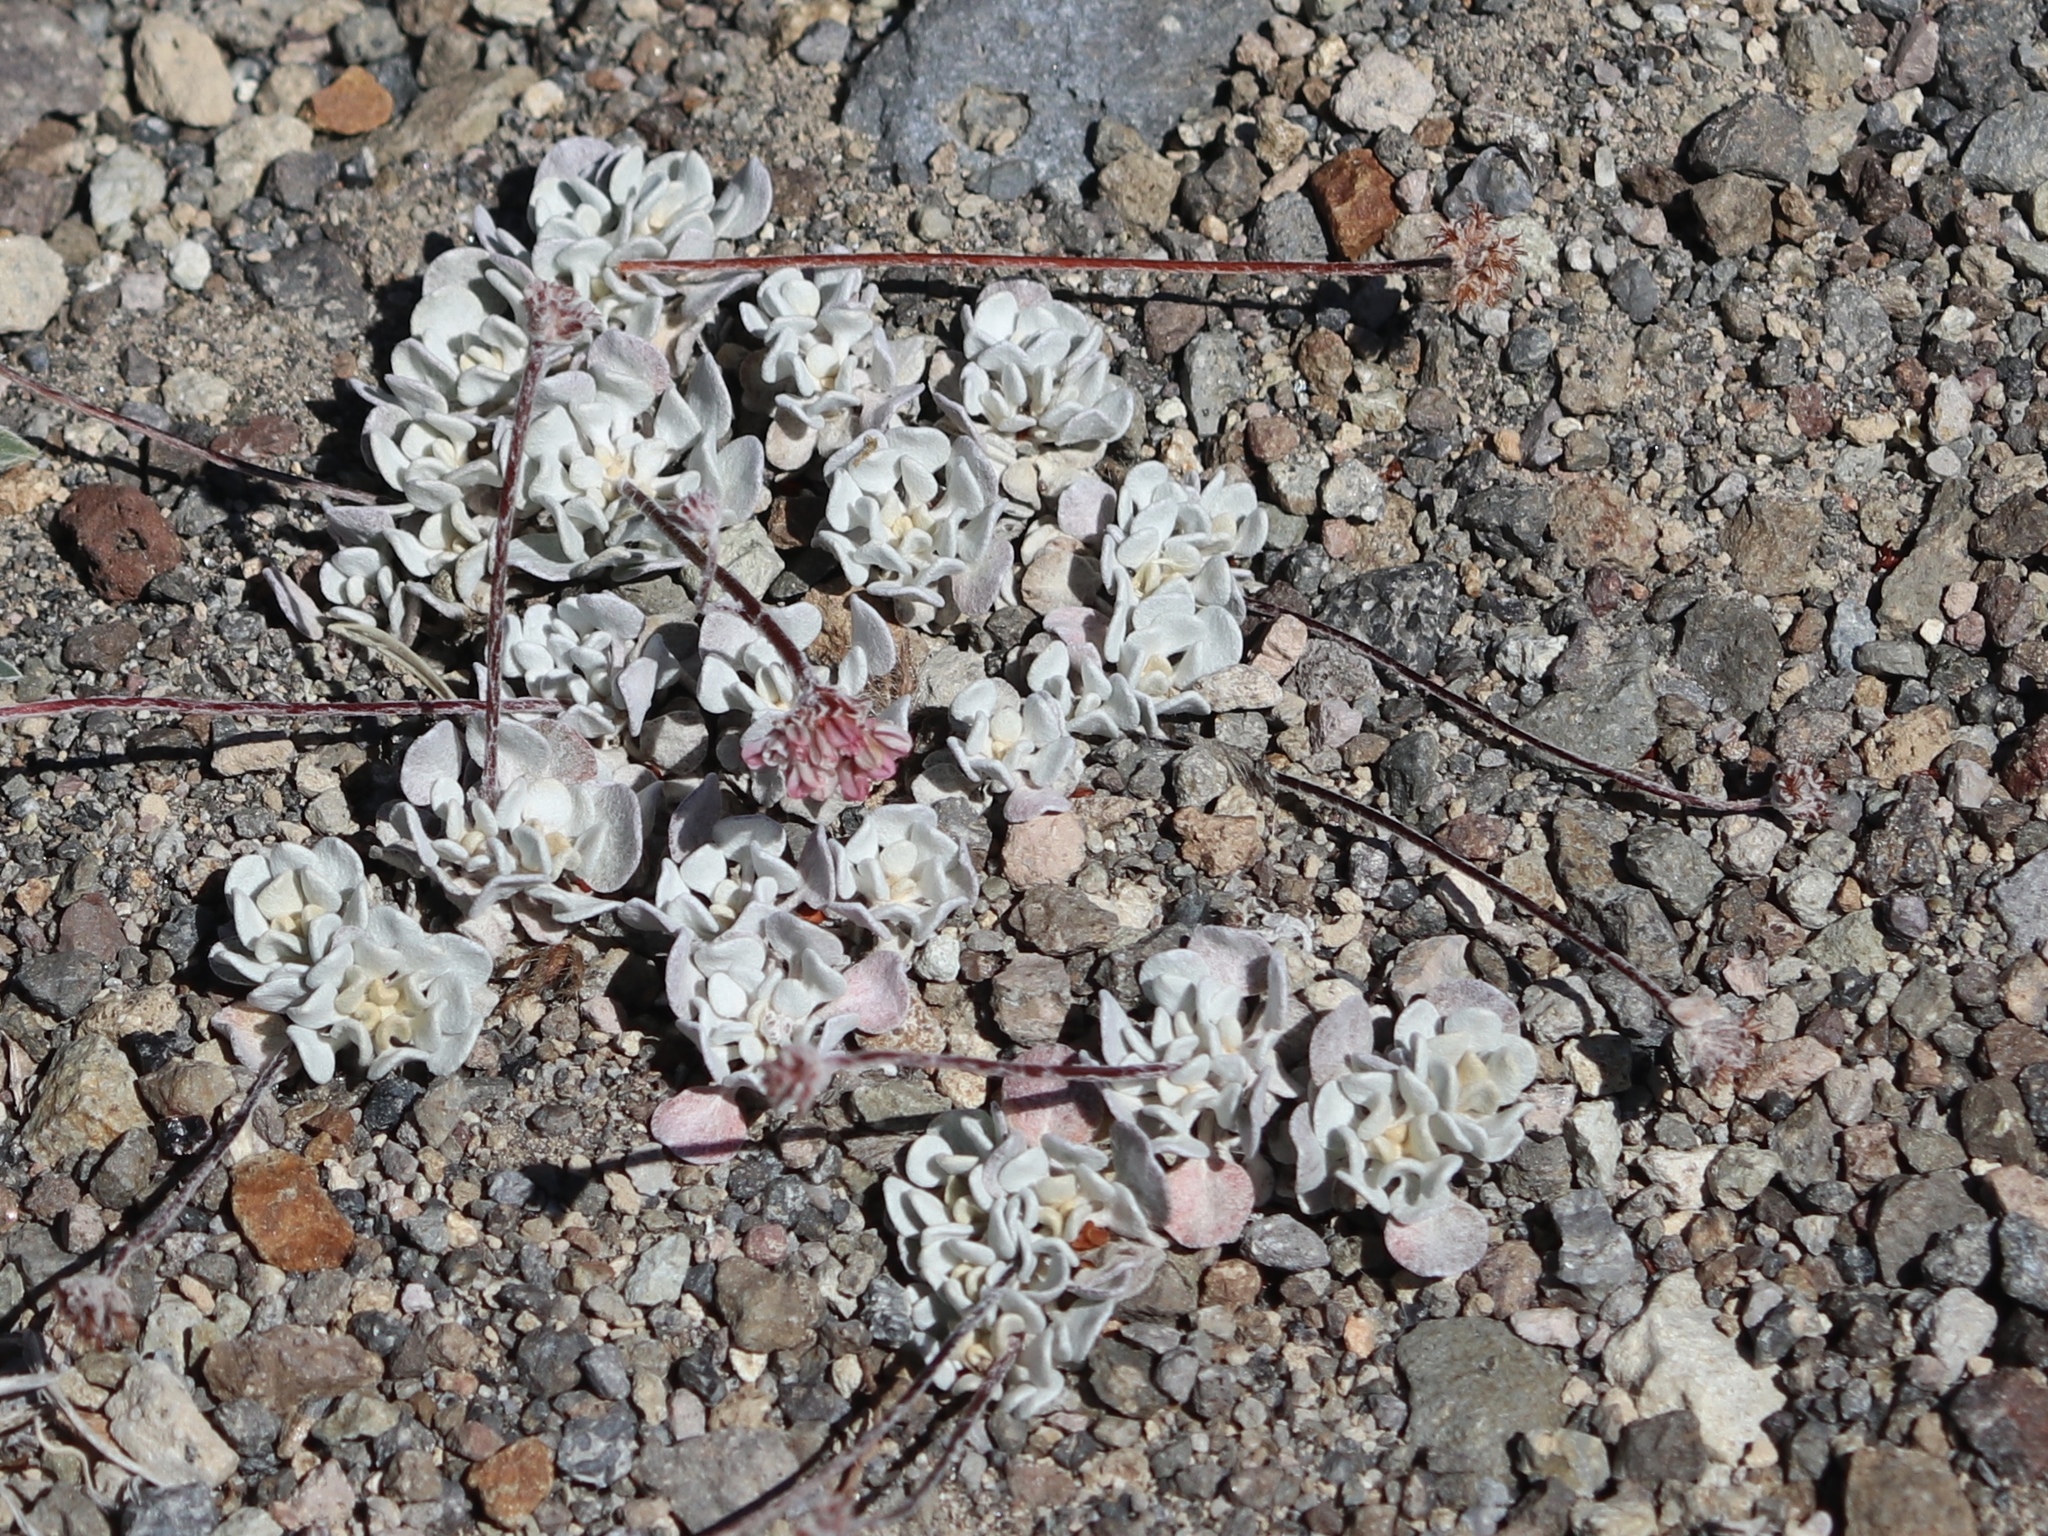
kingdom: Plantae
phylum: Tracheophyta
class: Magnoliopsida
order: Saxifragales
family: Crassulaceae
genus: Sedum
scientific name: Sedum spathulifolium
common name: Colorado stonecrop
